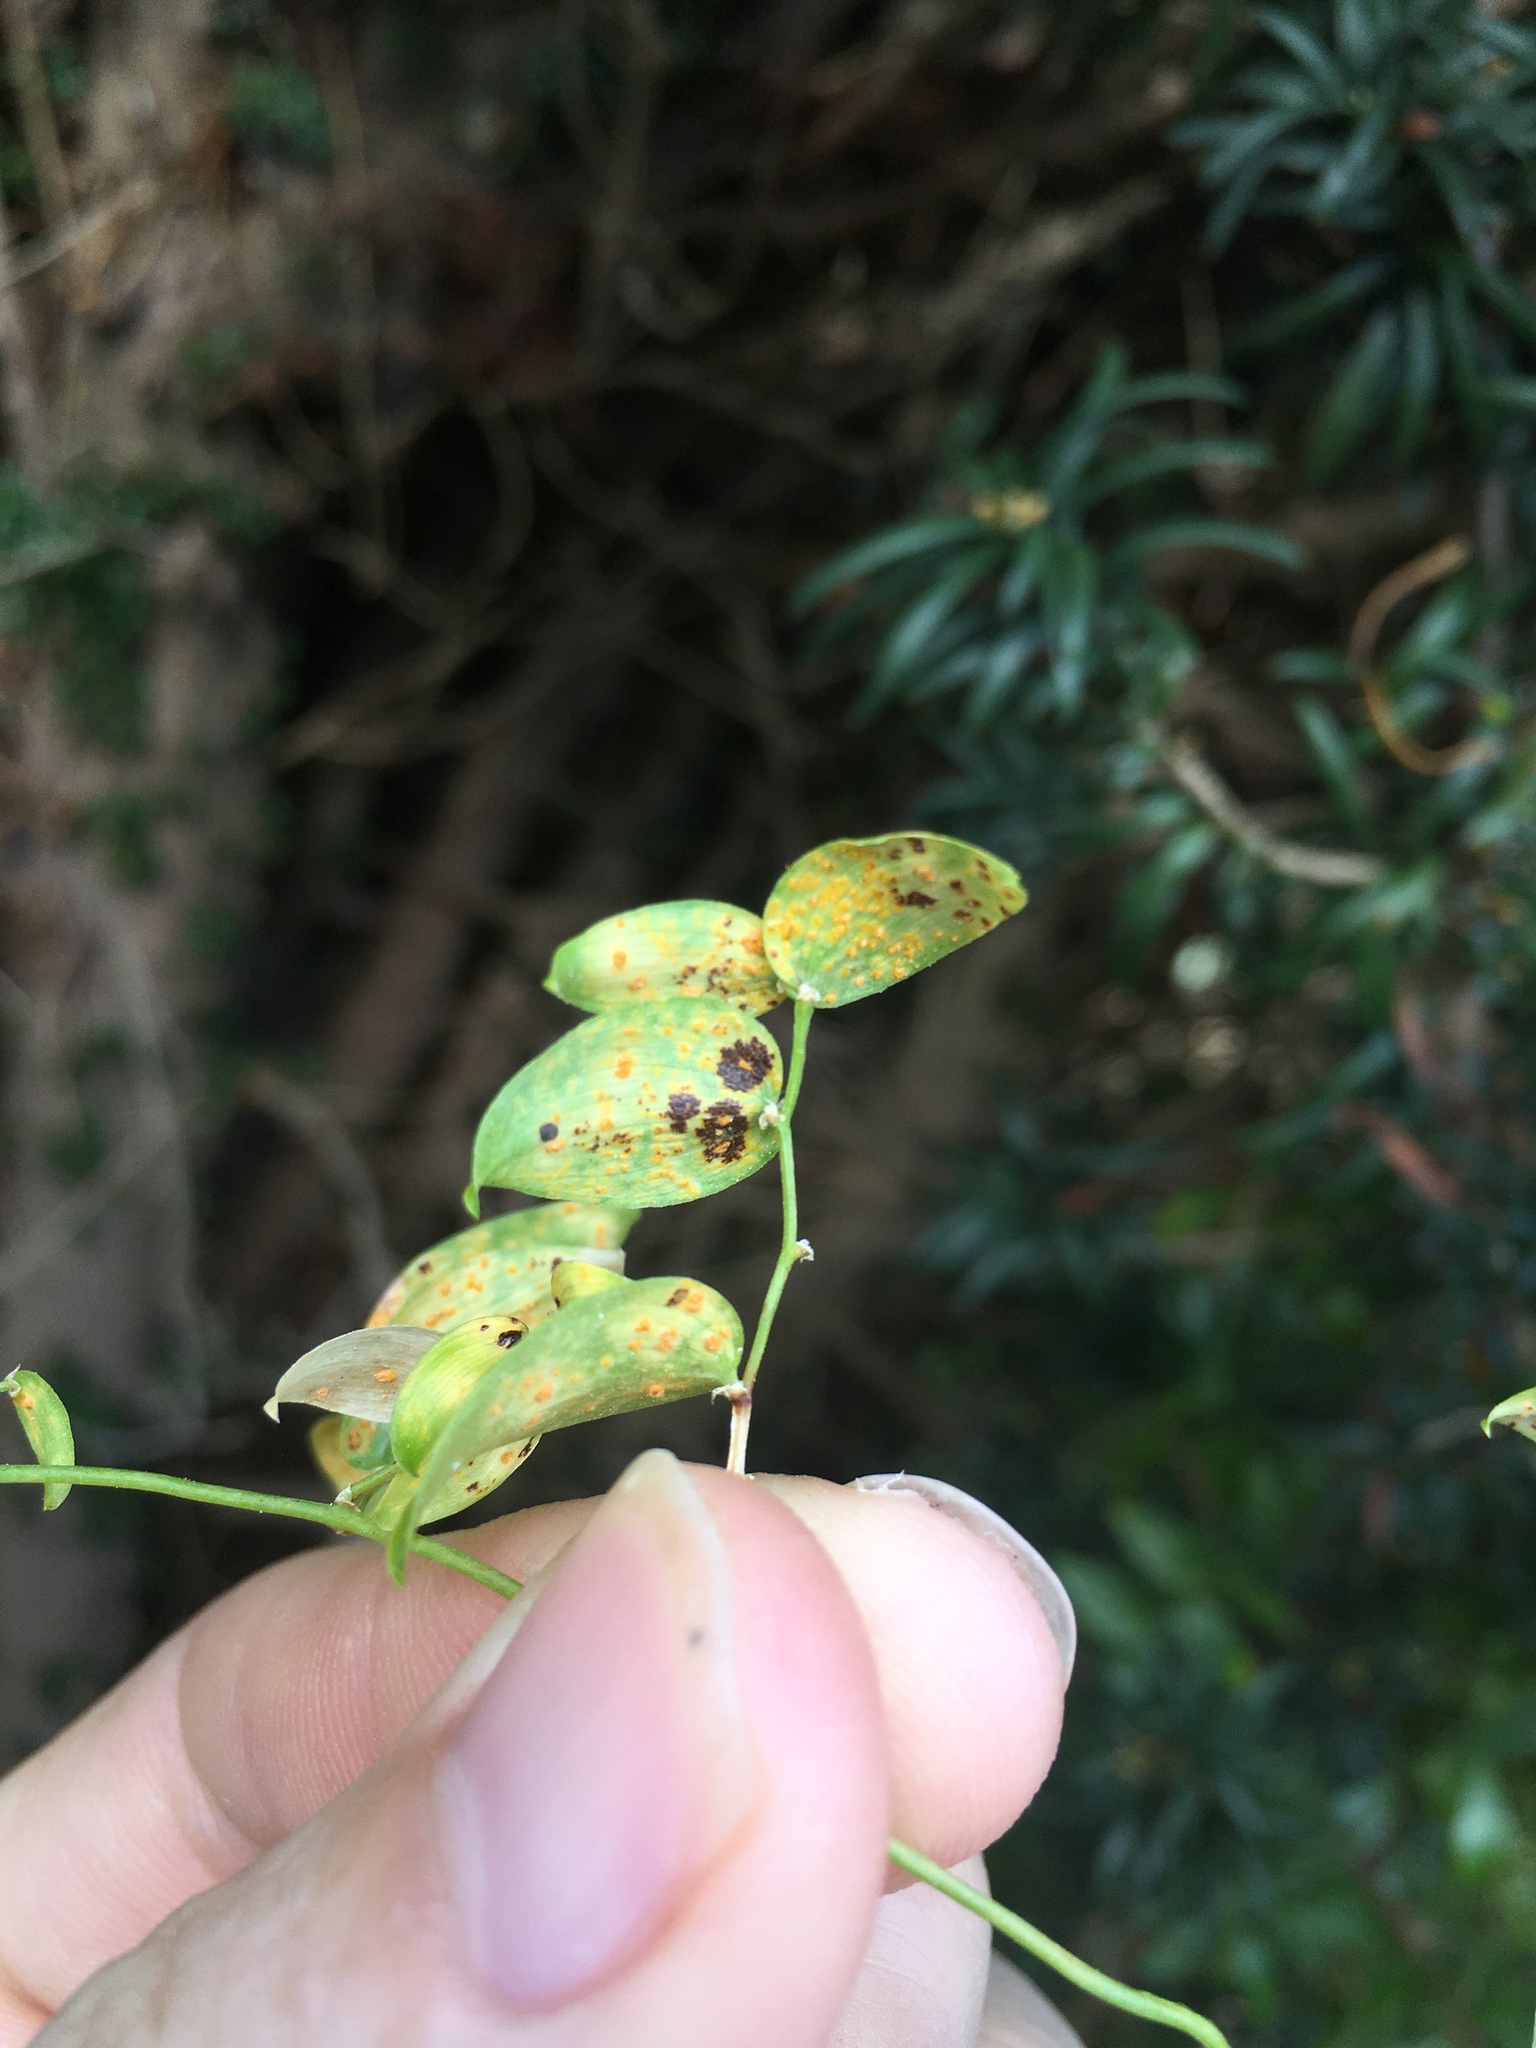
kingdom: Fungi
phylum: Basidiomycota
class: Pucciniomycetes
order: Pucciniales
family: Pucciniaceae
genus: Puccinia
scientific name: Puccinia myrsiphylli
